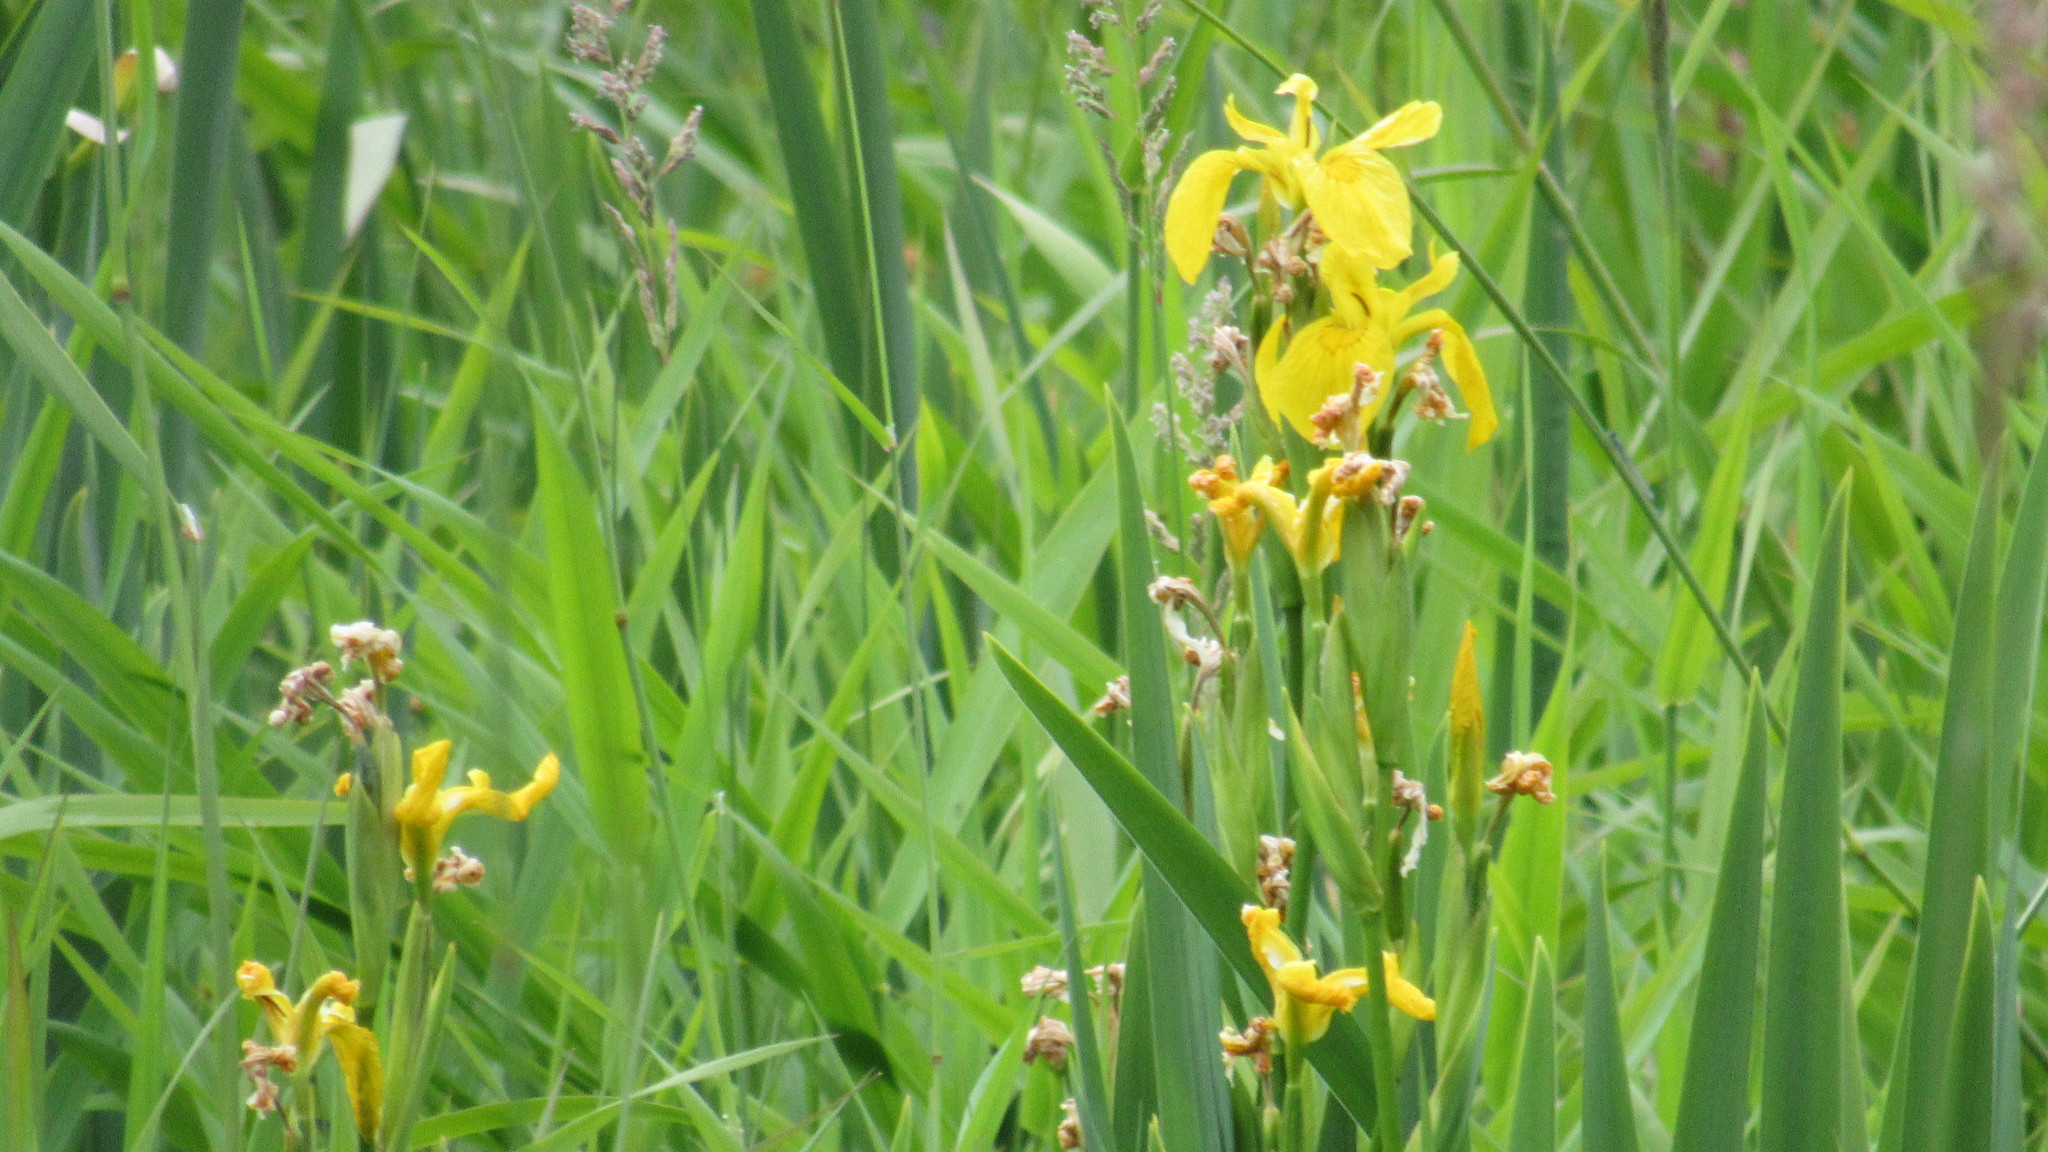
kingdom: Plantae
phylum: Tracheophyta
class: Liliopsida
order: Asparagales
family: Iridaceae
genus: Iris
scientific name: Iris pseudacorus
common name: Yellow flag
